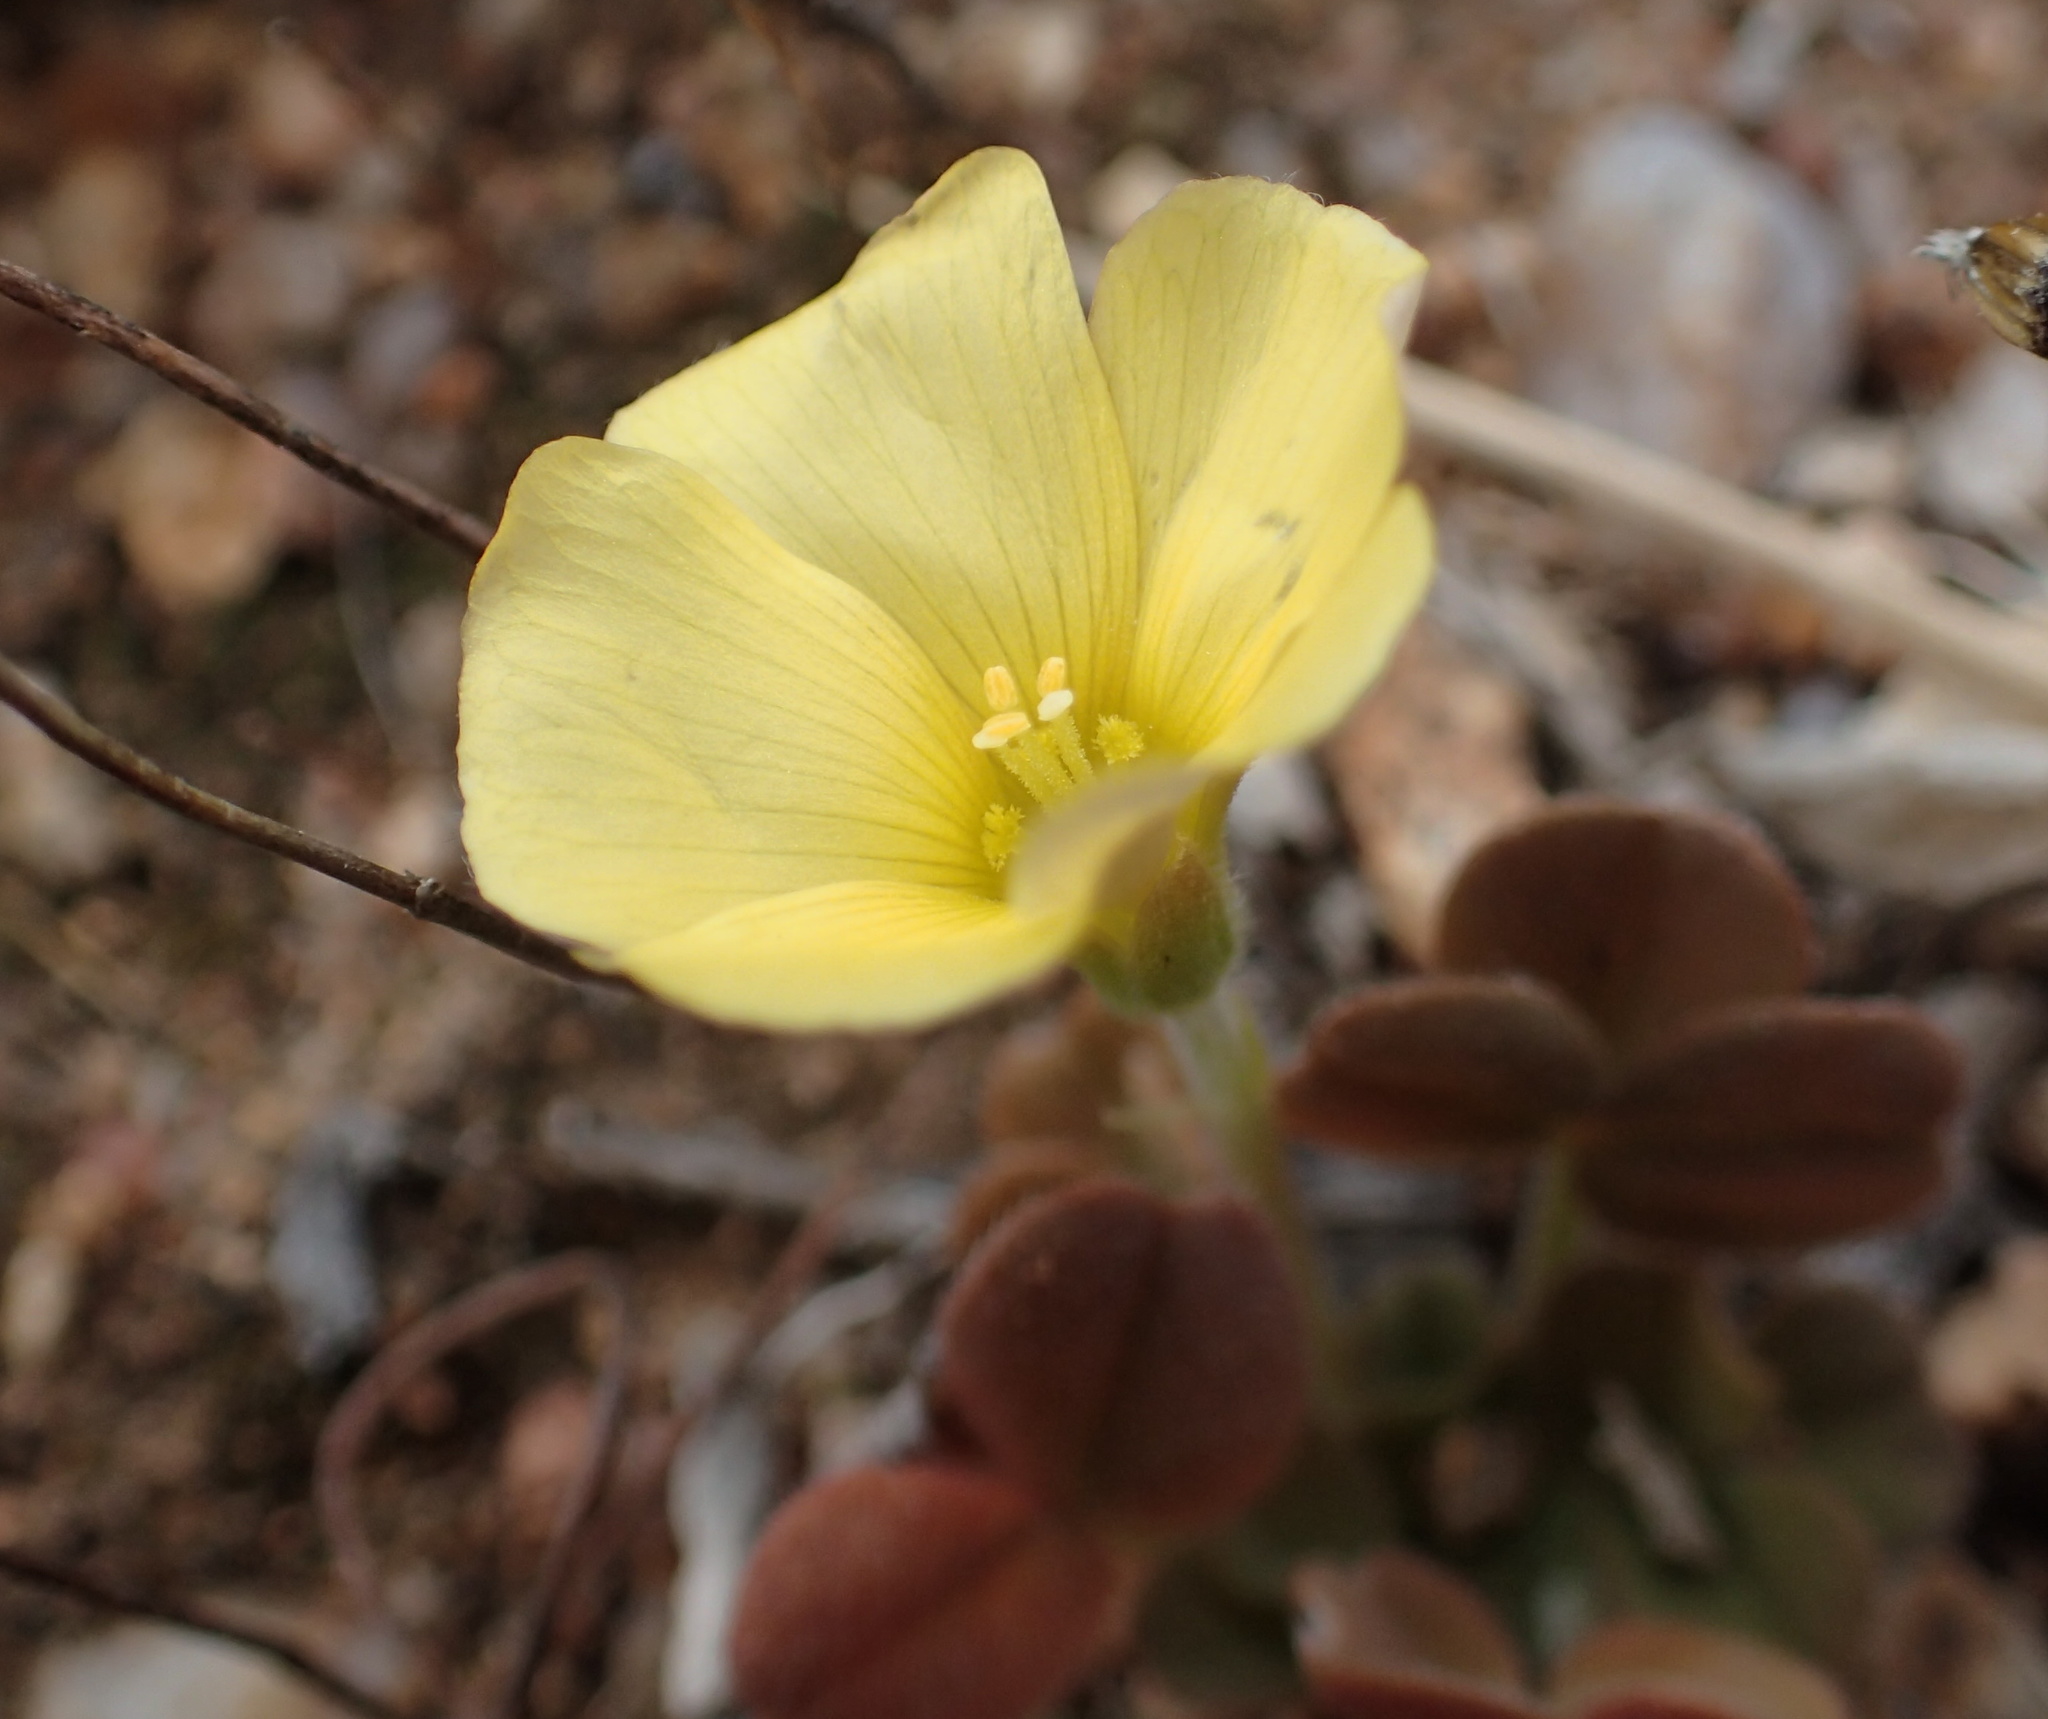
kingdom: Plantae
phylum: Tracheophyta
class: Magnoliopsida
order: Oxalidales
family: Oxalidaceae
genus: Oxalis
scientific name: Oxalis obtusa
